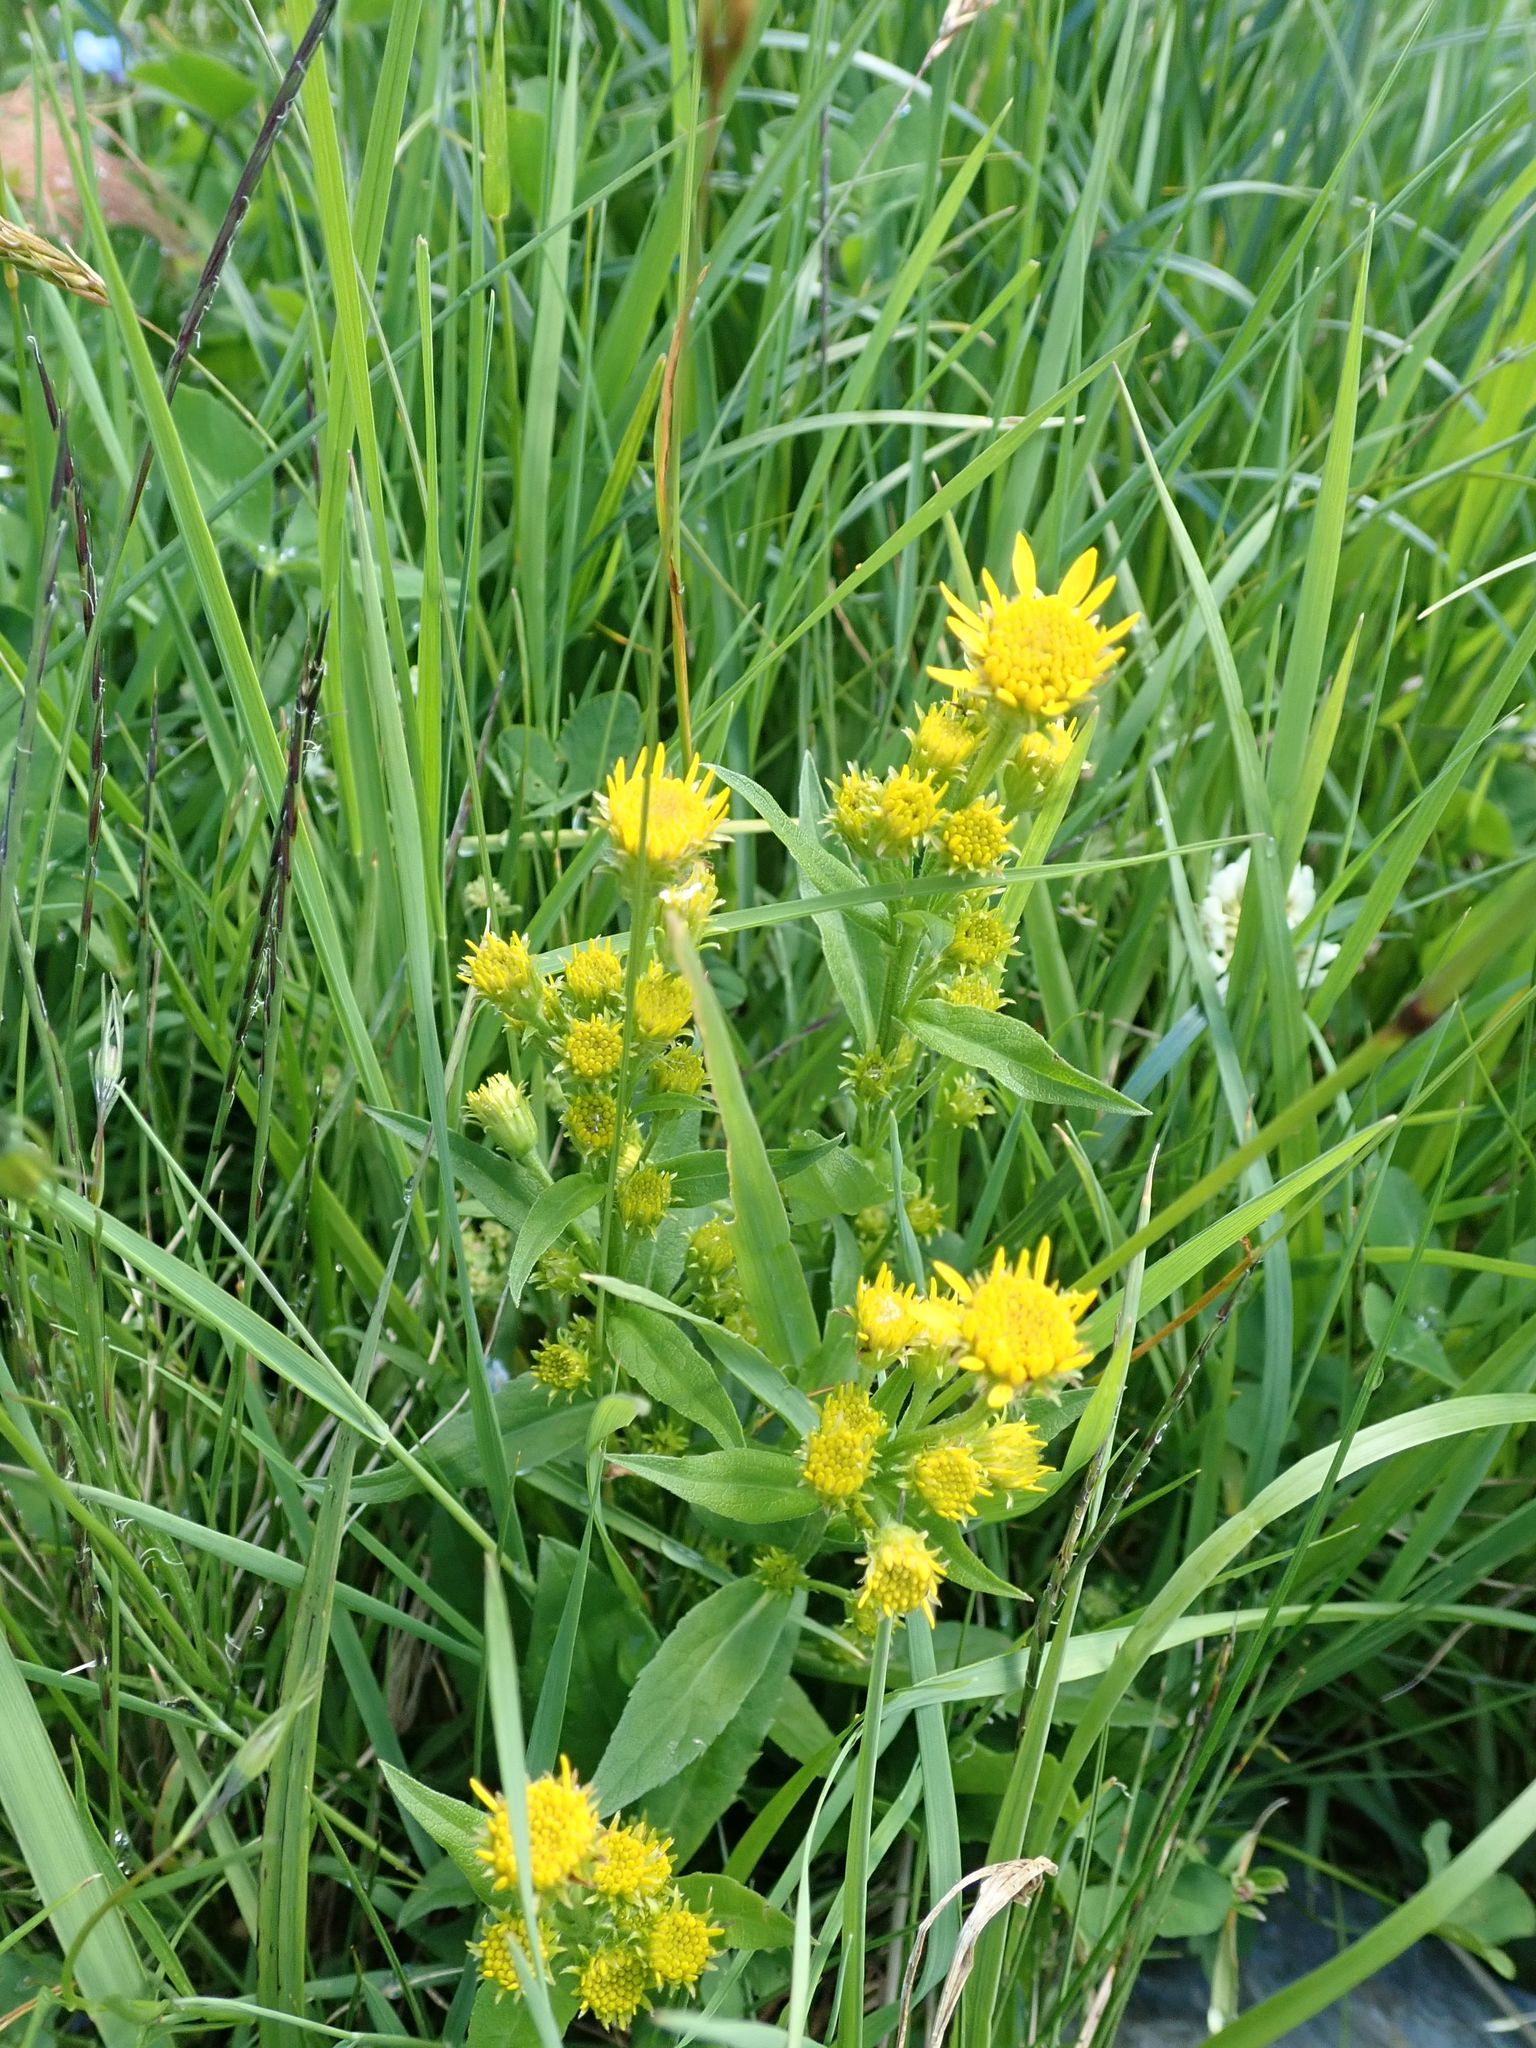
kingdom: Plantae
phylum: Tracheophyta
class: Magnoliopsida
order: Asterales
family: Asteraceae
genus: Solidago
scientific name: Solidago virgaurea
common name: Goldenrod
